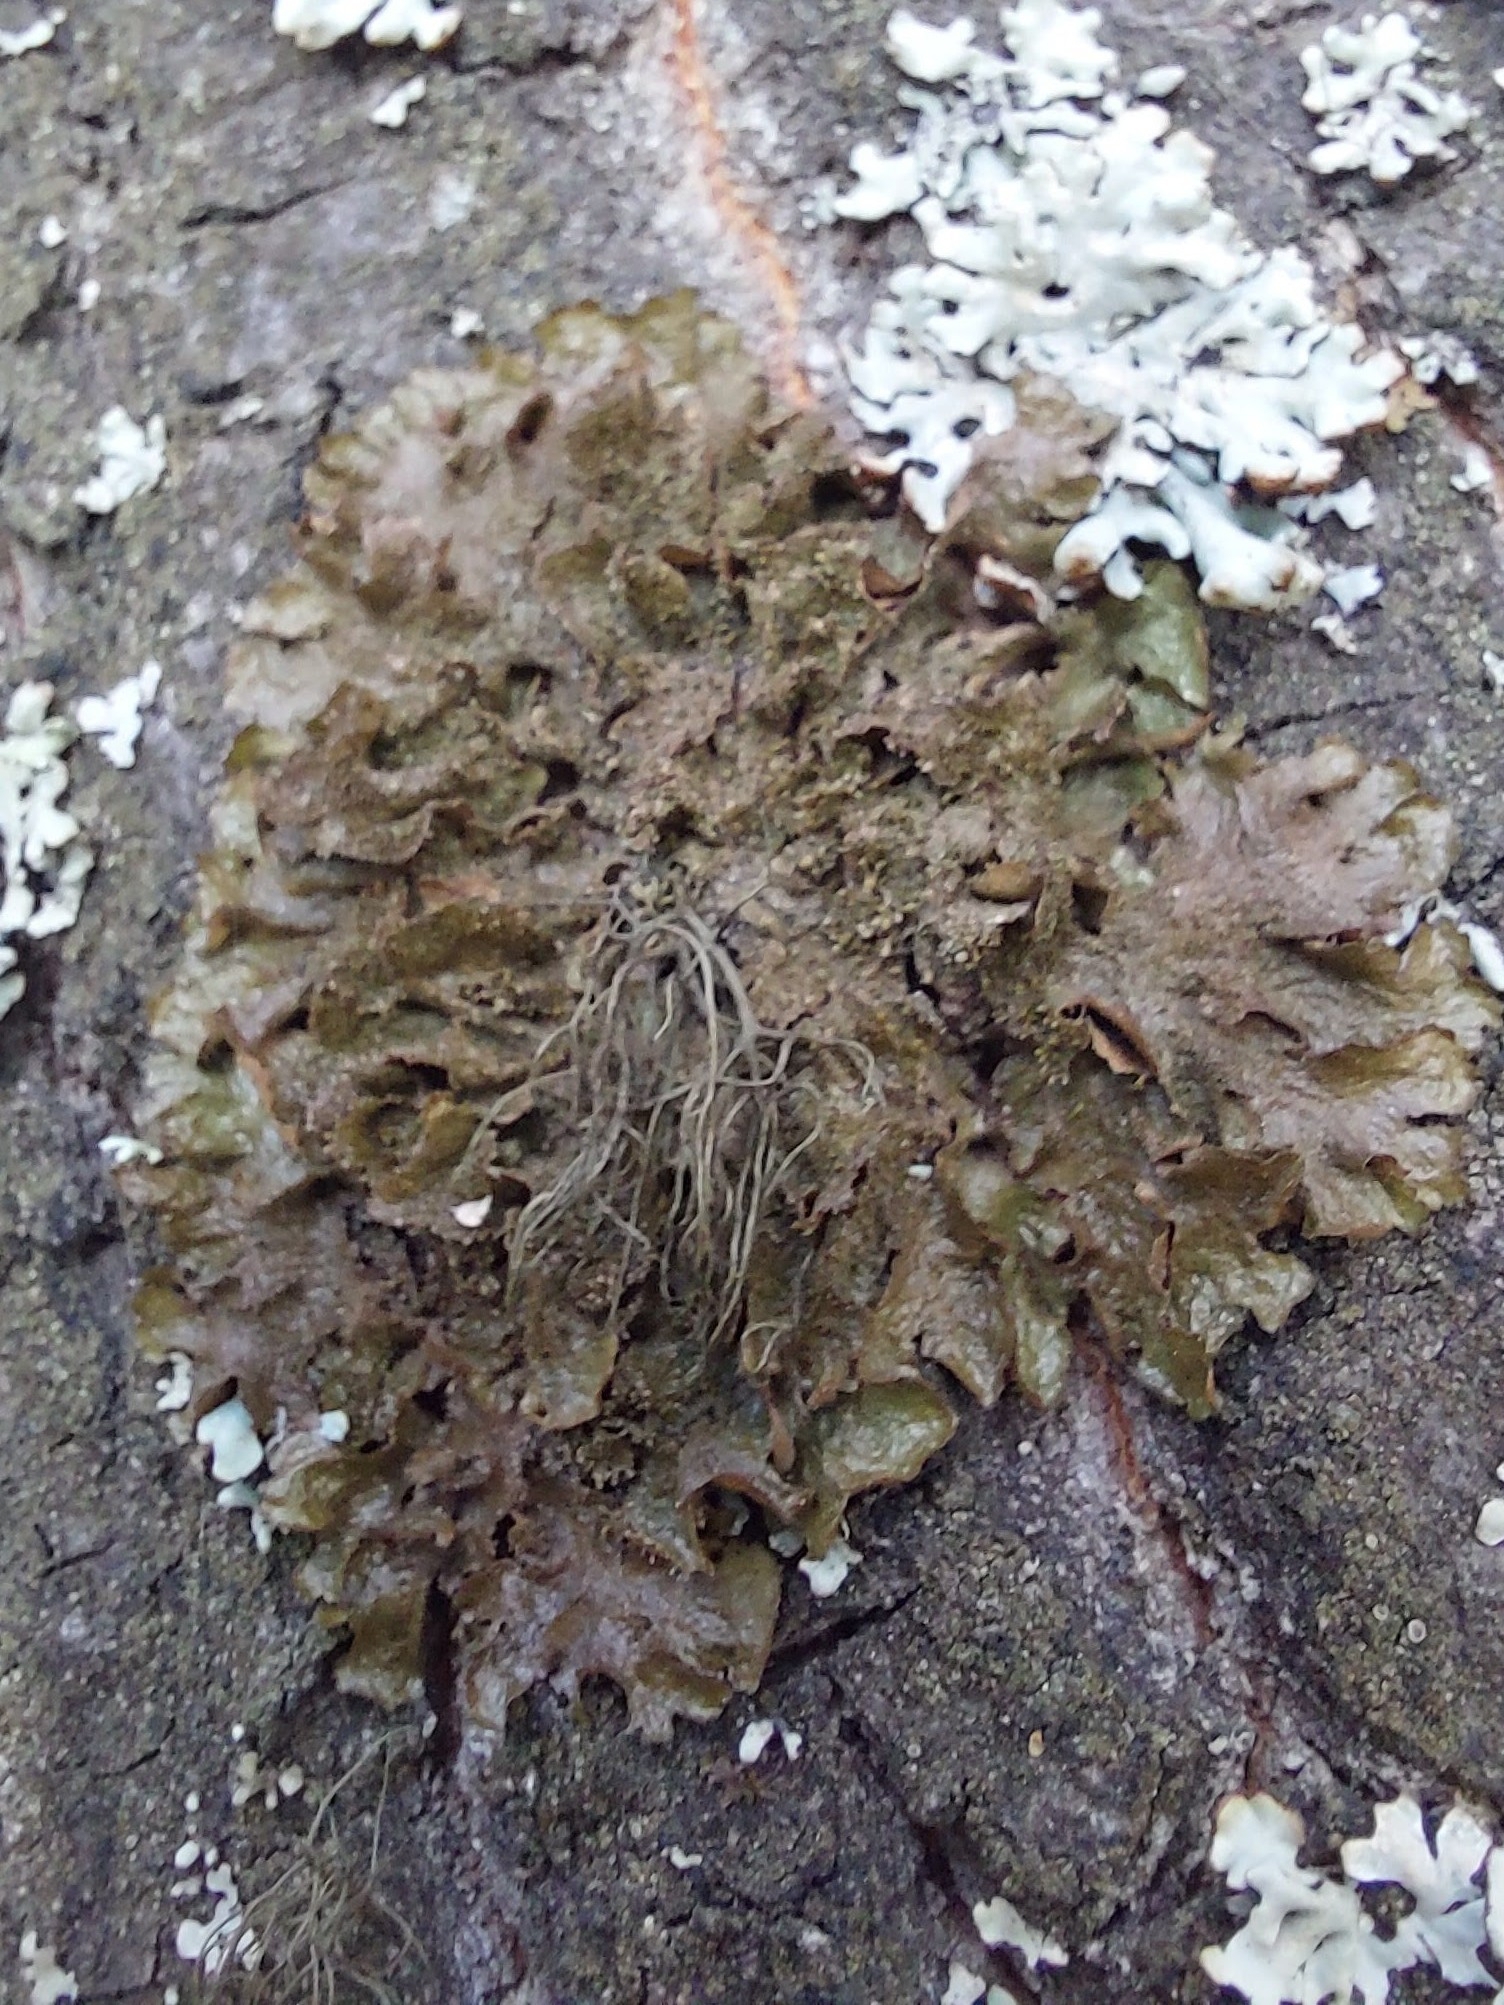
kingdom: Fungi
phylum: Ascomycota
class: Lecanoromycetes
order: Lecanorales
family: Parmeliaceae
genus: Melanohalea
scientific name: Melanohalea exasperatula
